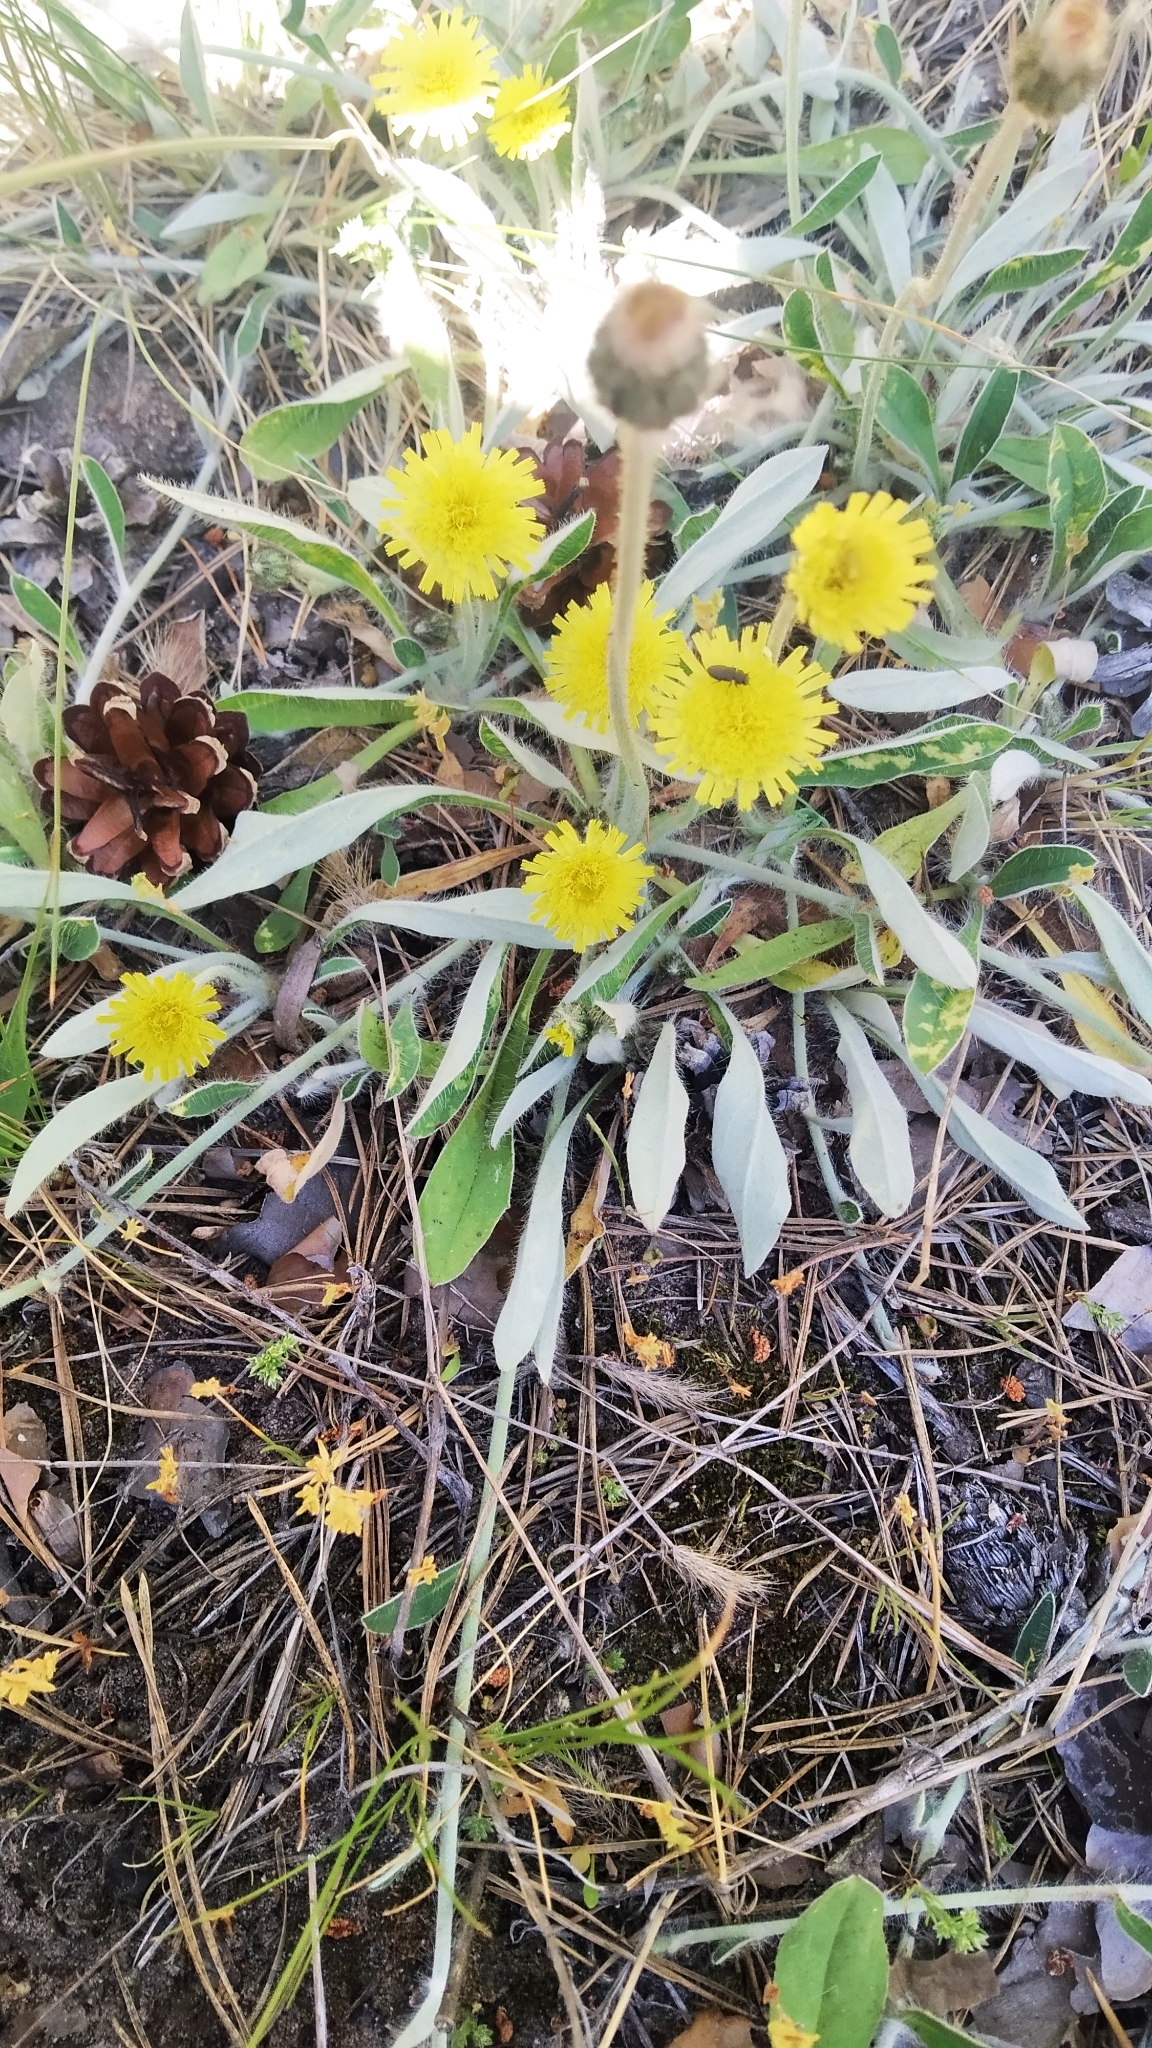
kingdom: Plantae
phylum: Tracheophyta
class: Magnoliopsida
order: Asterales
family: Asteraceae
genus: Pilosella
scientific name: Pilosella officinarum
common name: Mouse-ear hawkweed
